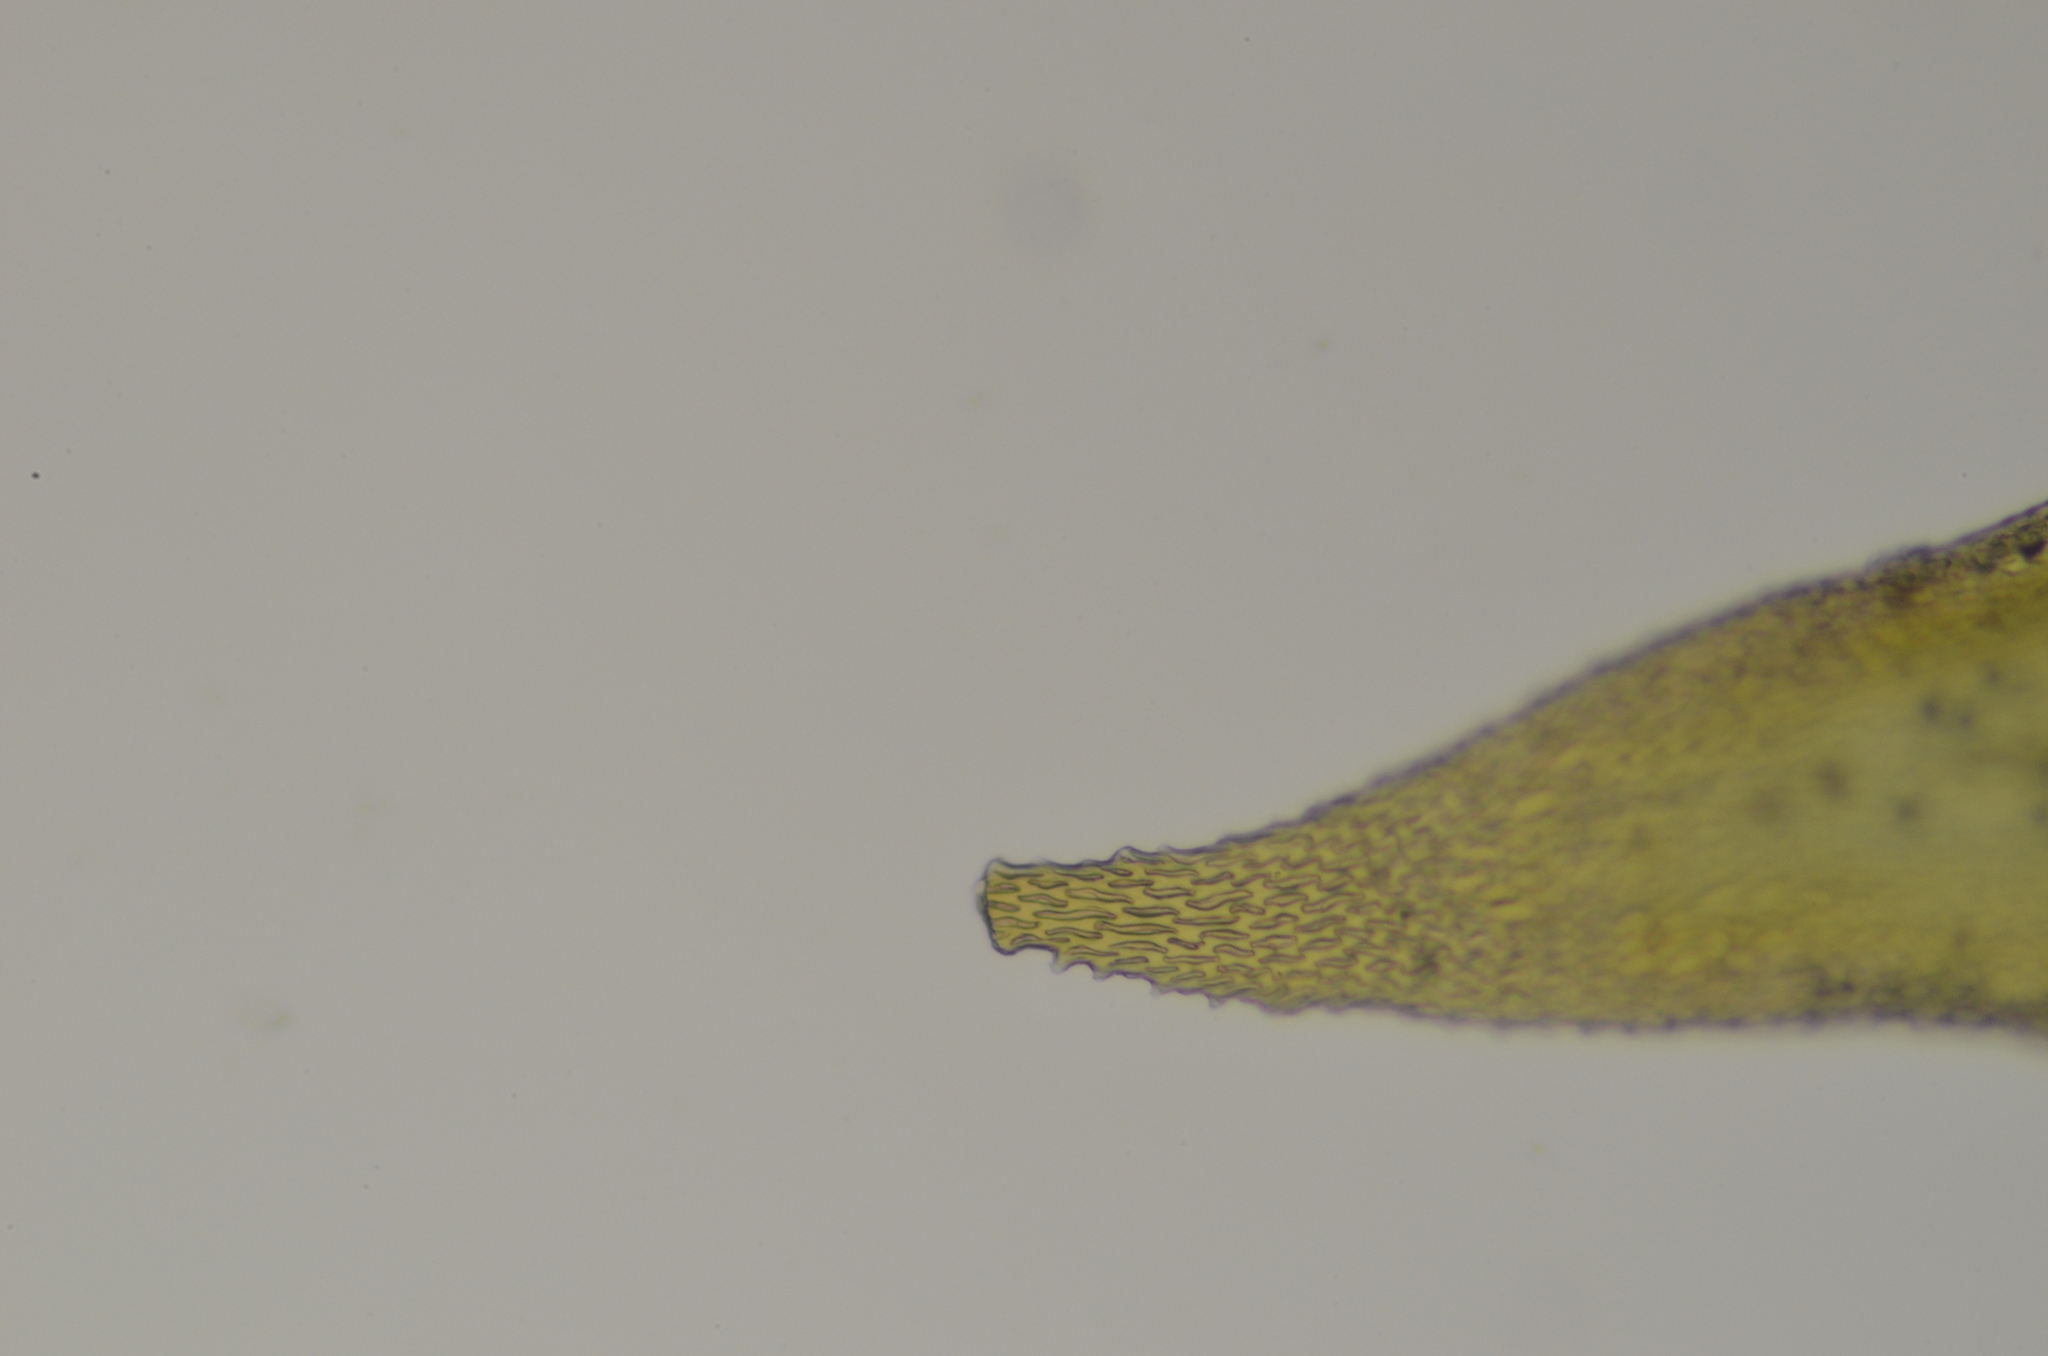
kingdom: Plantae
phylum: Bryophyta
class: Bryopsida
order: Hypnales
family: Antitrichiaceae
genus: Antitrichia
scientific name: Antitrichia californica
